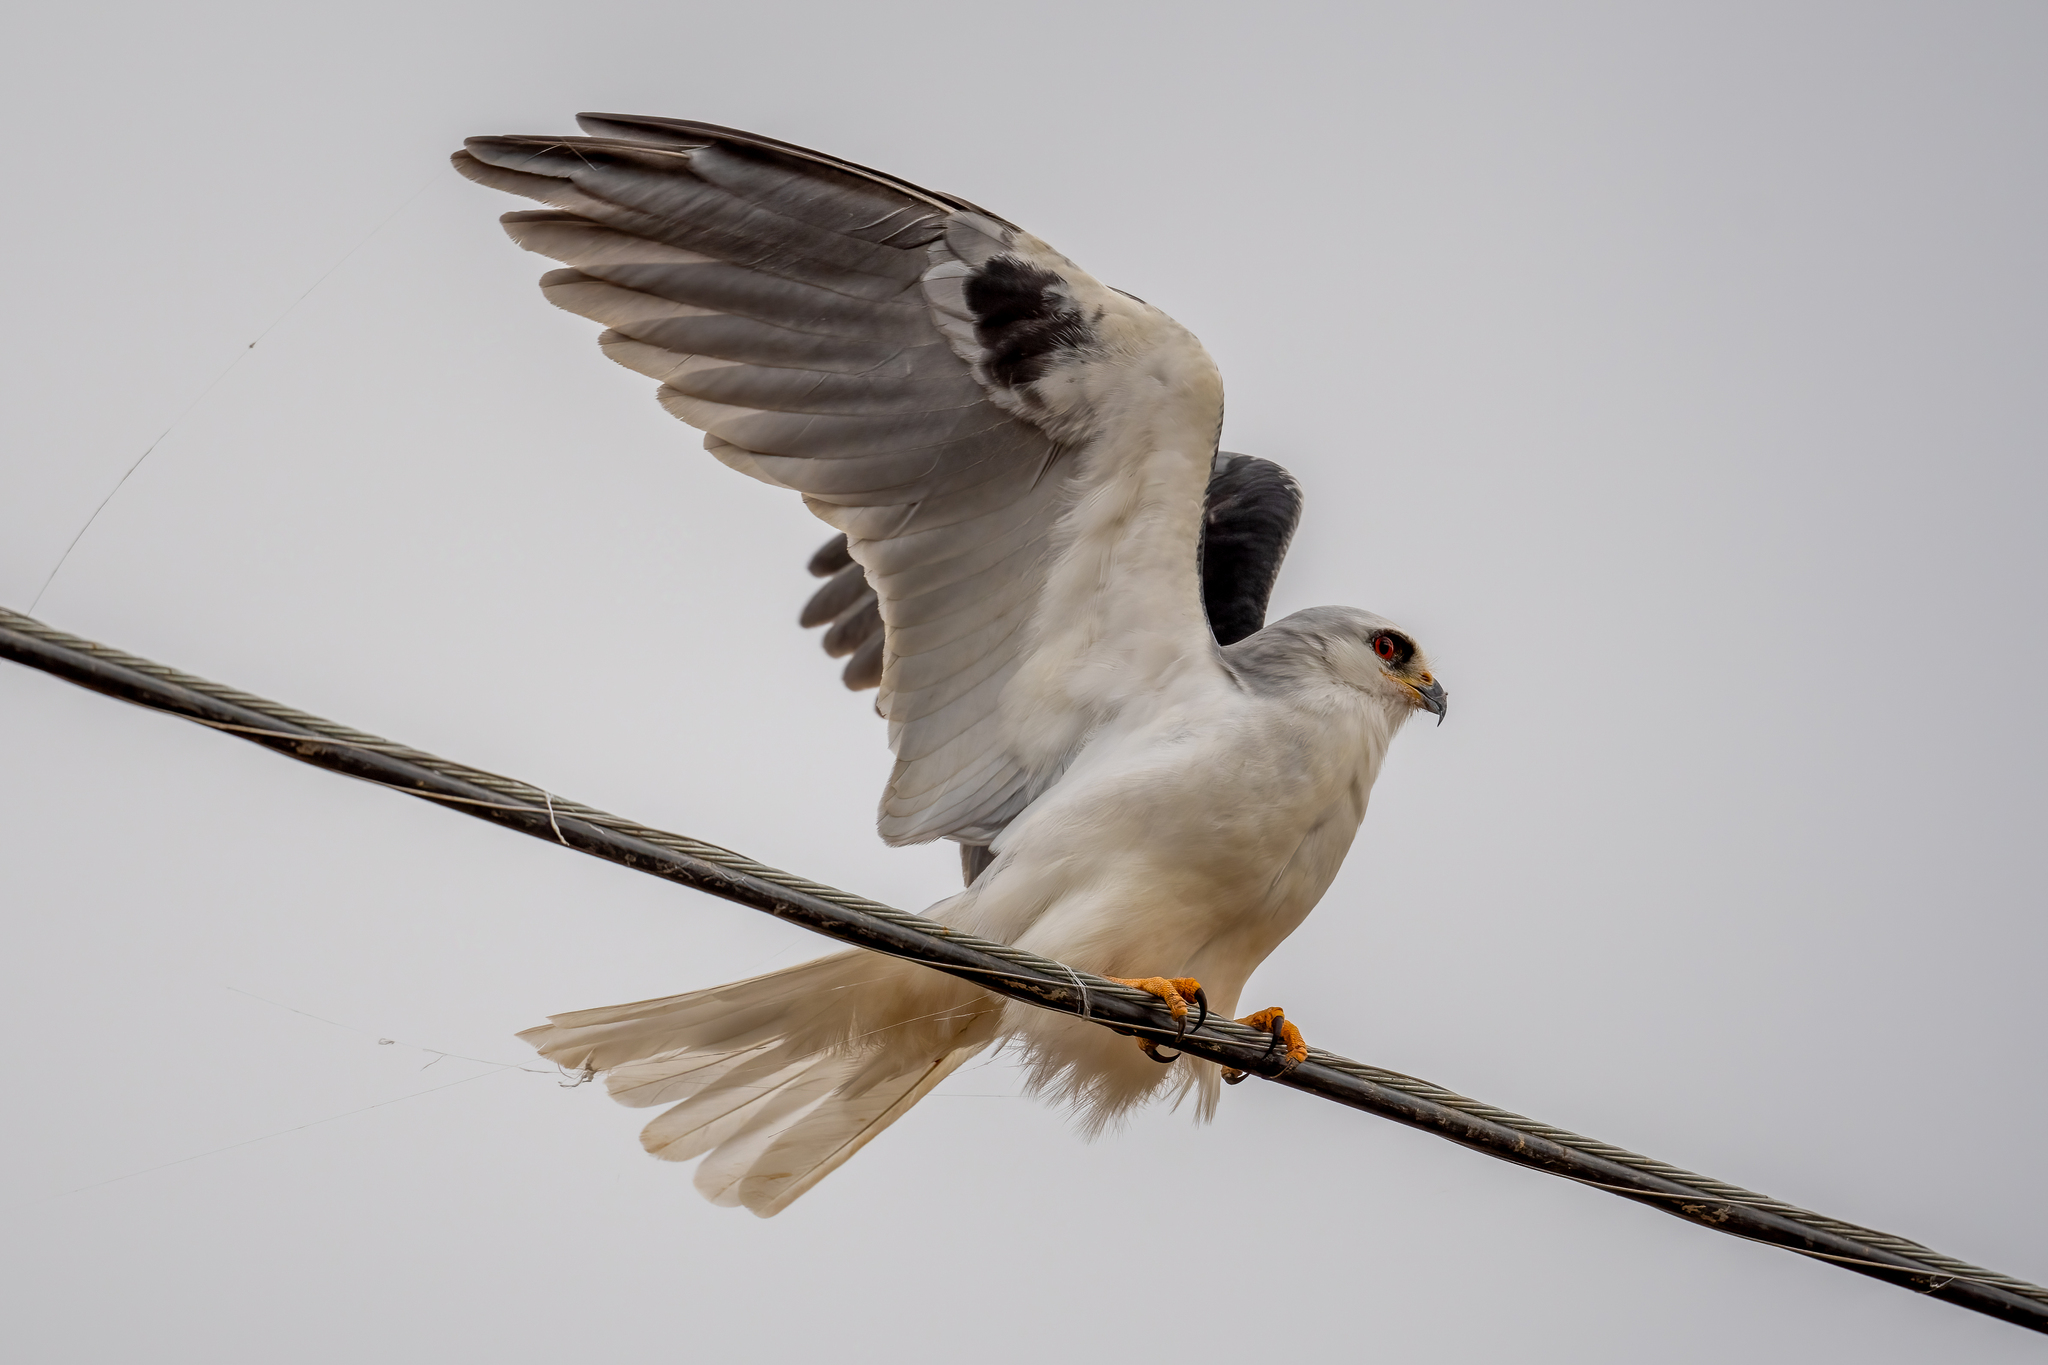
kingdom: Animalia
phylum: Chordata
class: Aves
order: Accipitriformes
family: Accipitridae
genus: Elanus
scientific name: Elanus leucurus
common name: White-tailed kite
